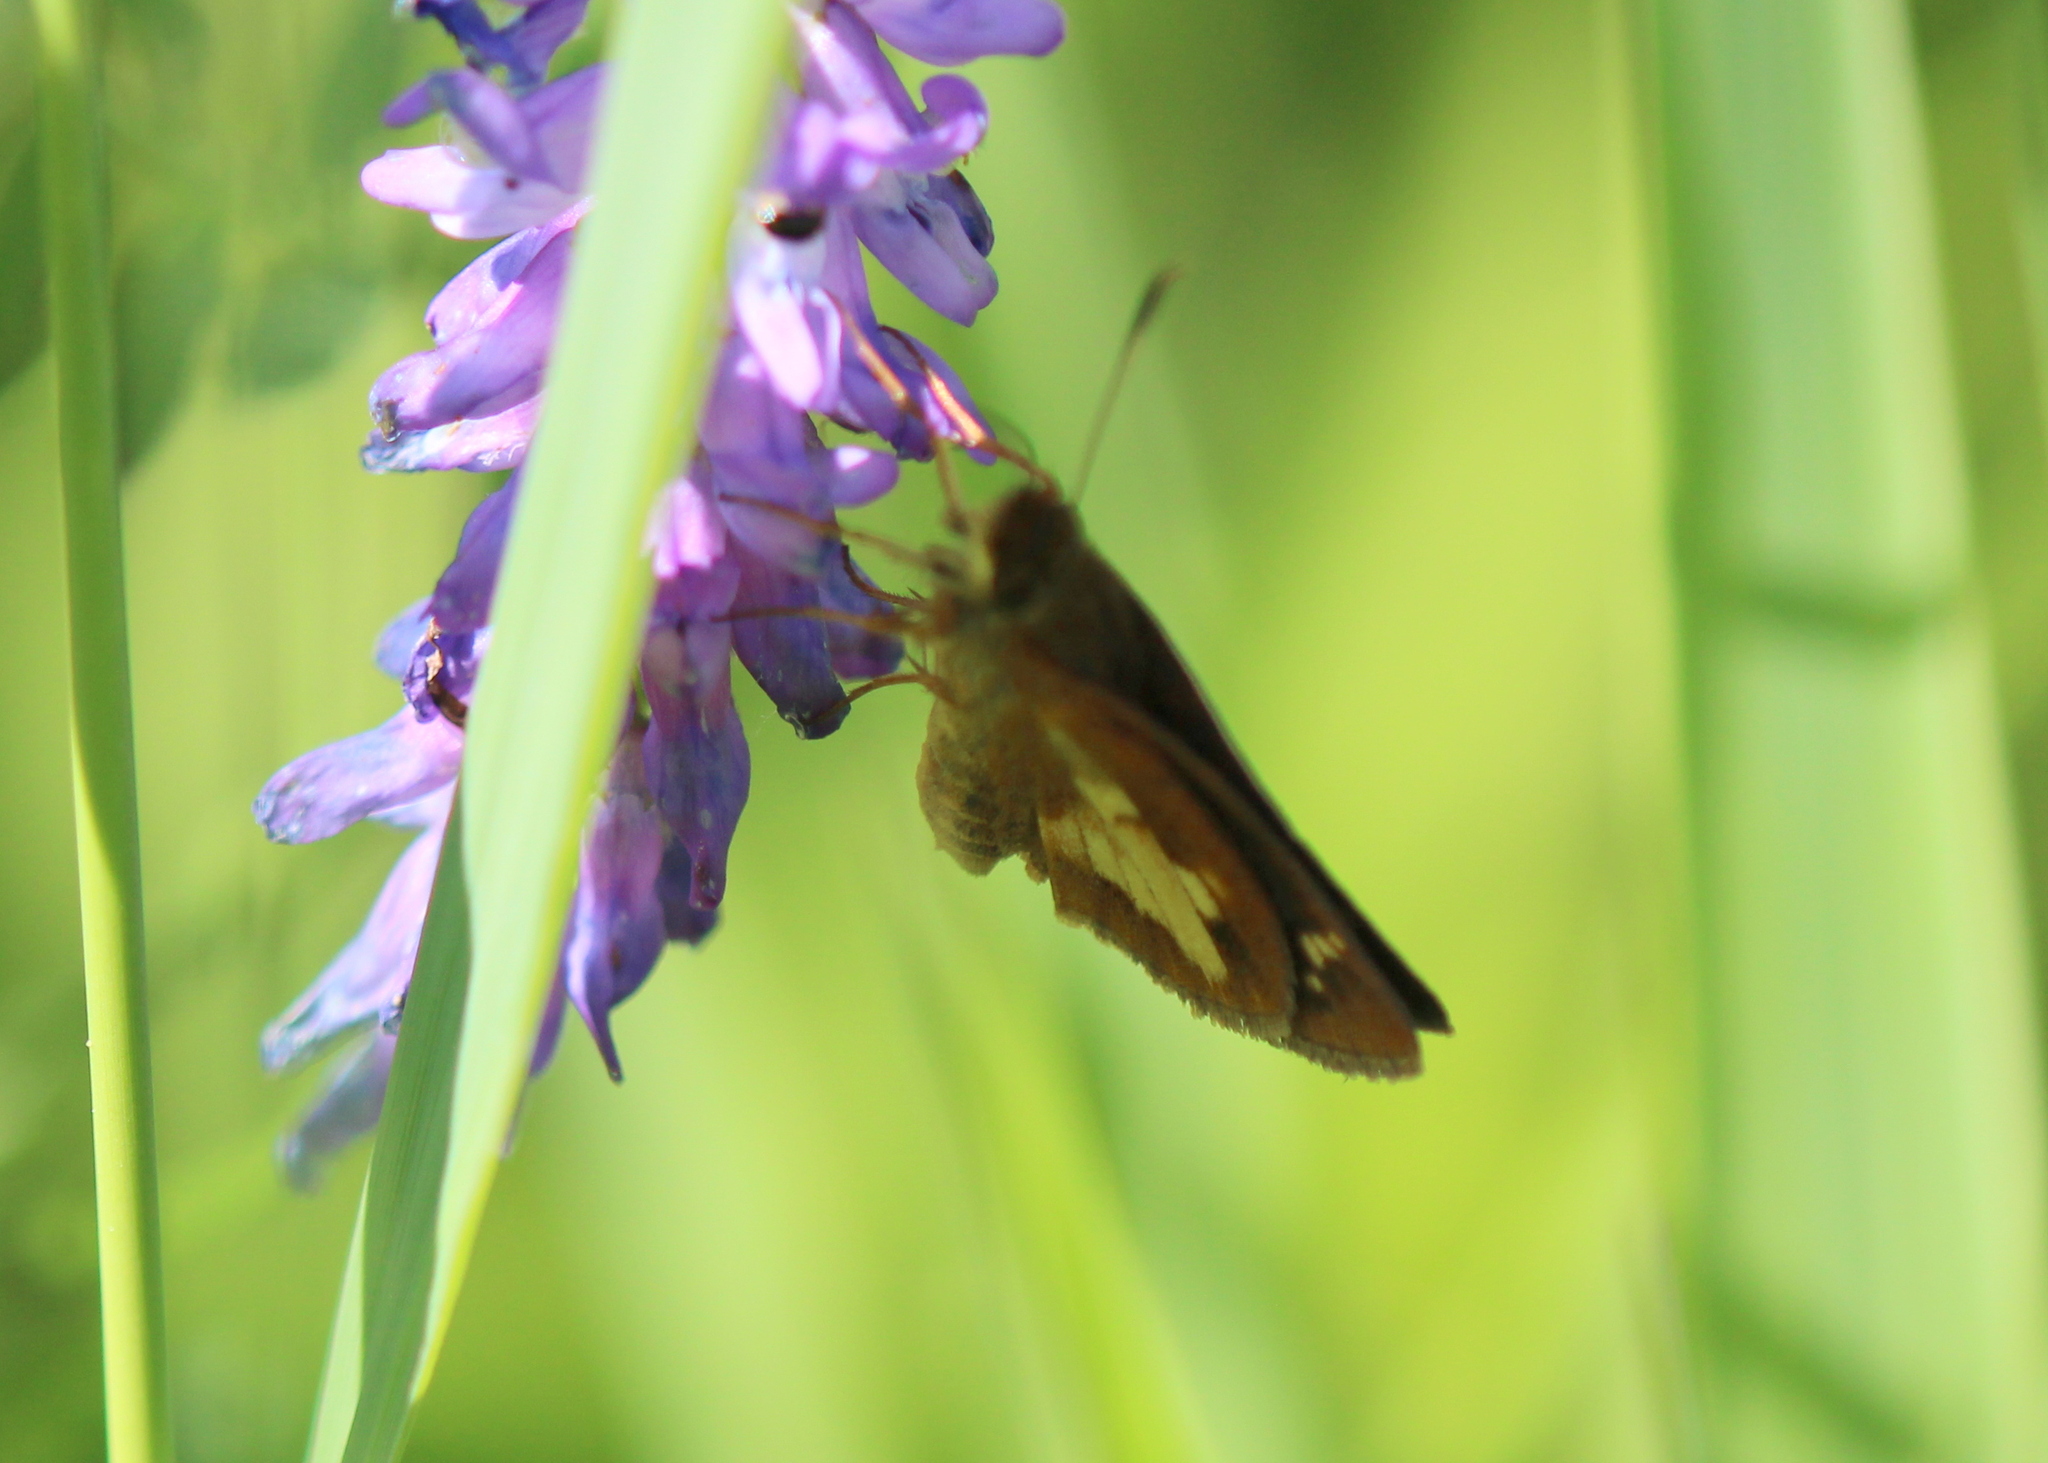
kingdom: Animalia
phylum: Arthropoda
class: Insecta
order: Lepidoptera
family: Hesperiidae
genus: Poanes
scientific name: Poanes massasoit
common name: Mulberrywing
